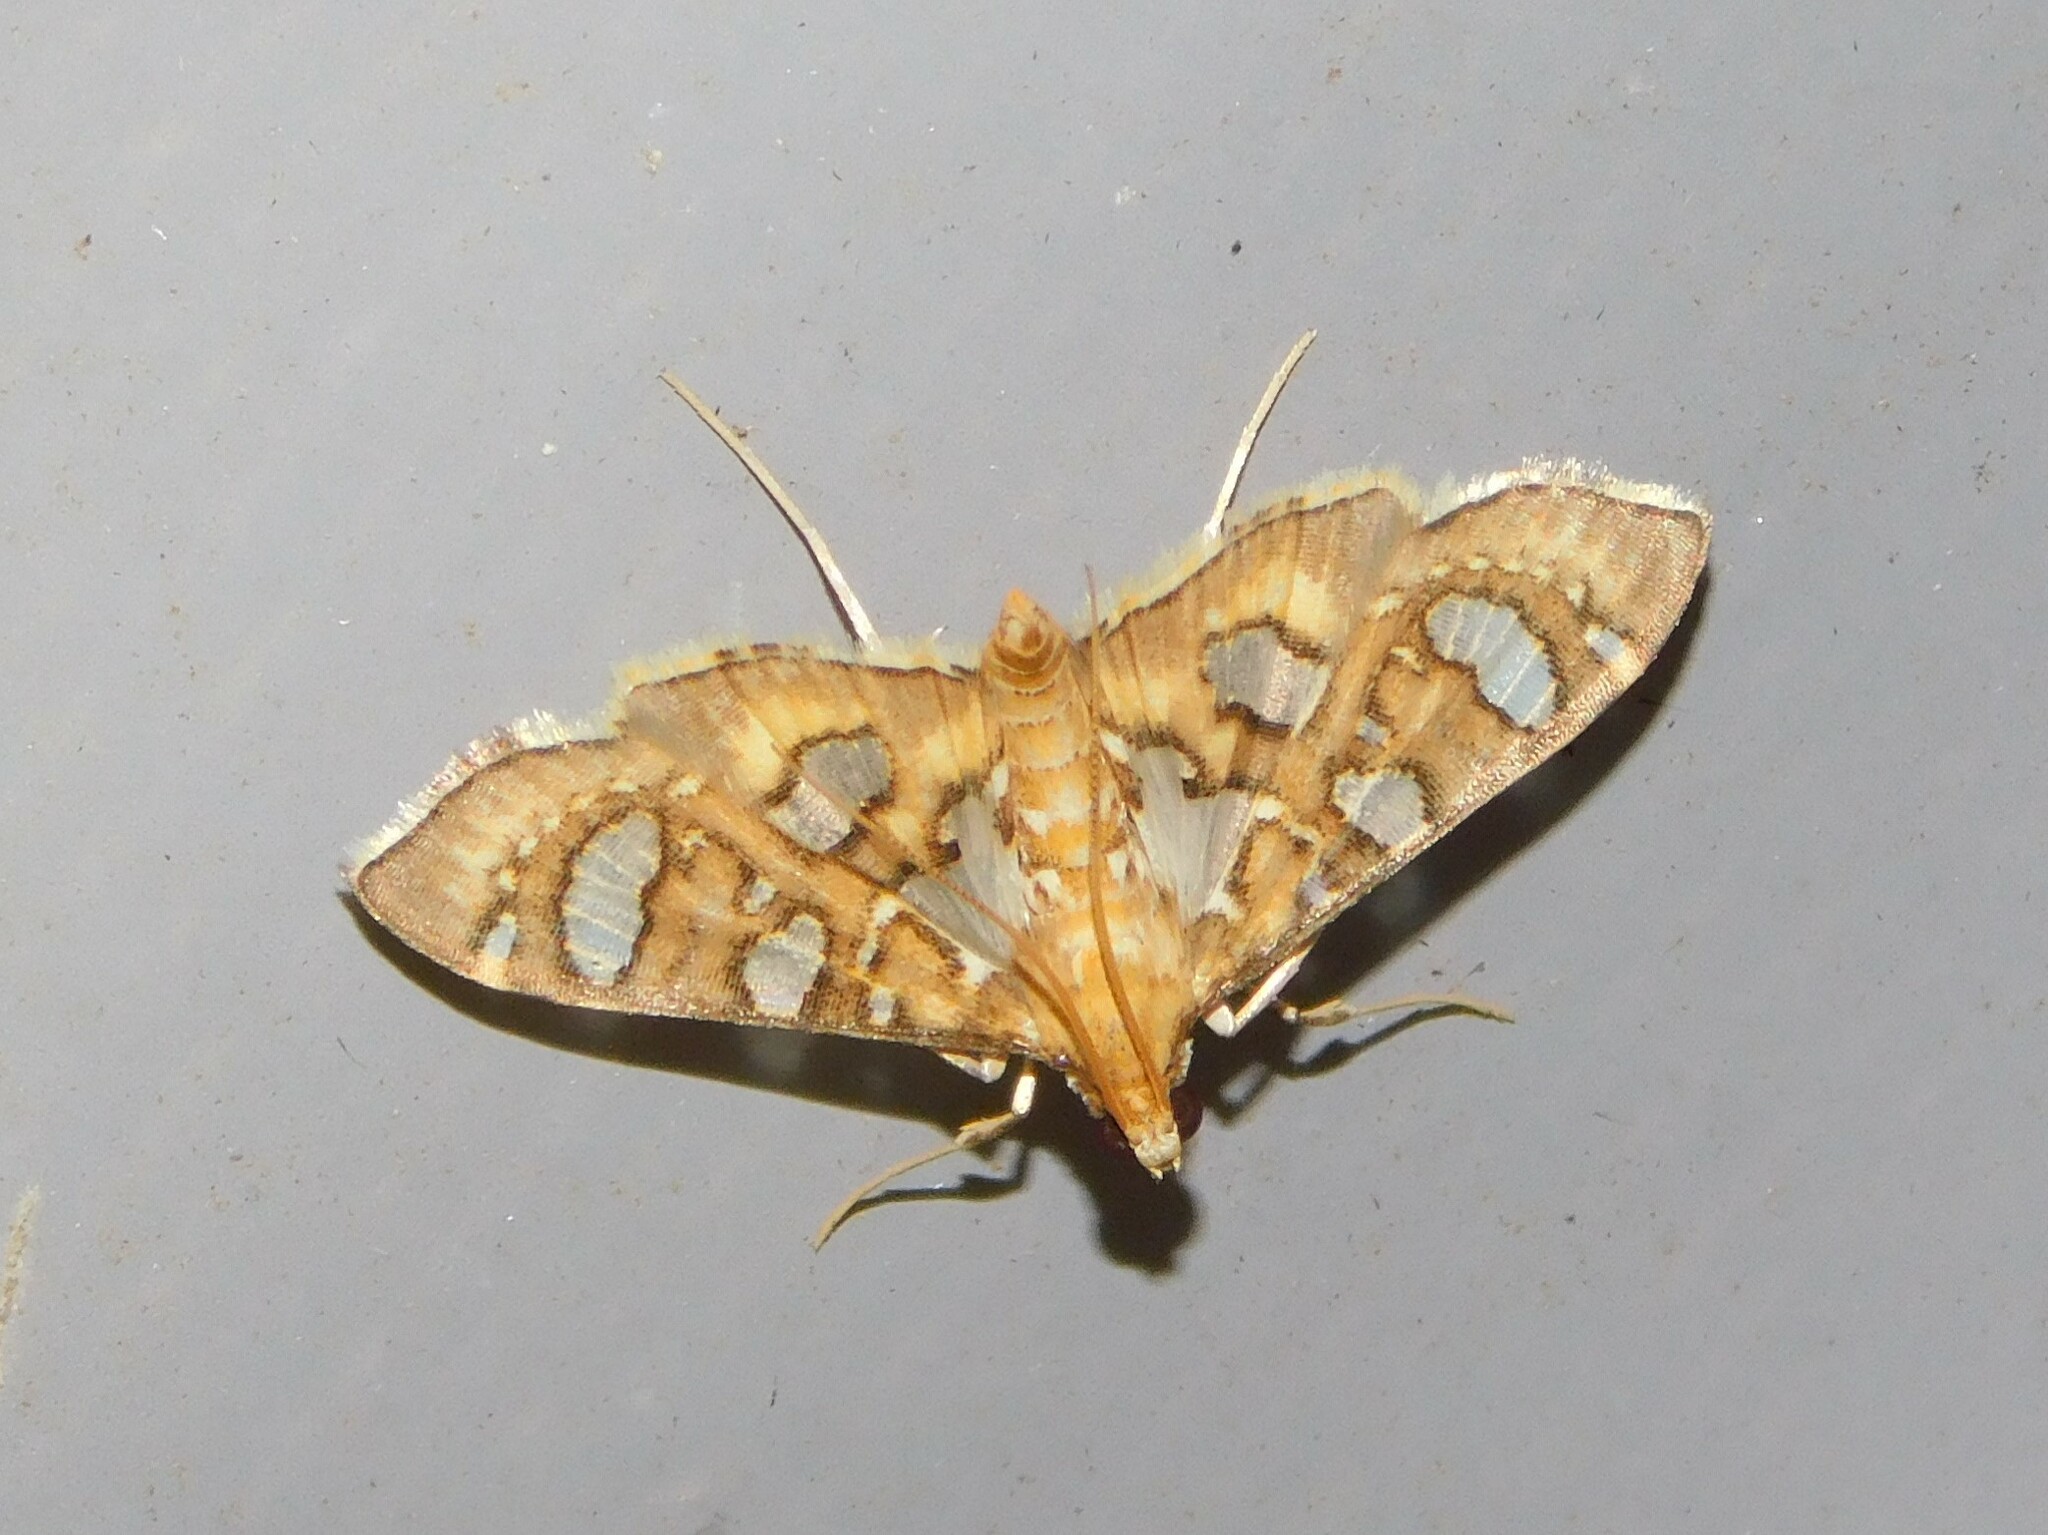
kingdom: Animalia
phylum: Arthropoda
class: Insecta
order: Lepidoptera
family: Crambidae
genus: Nausinoe
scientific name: Nausinoe quadrinalis
